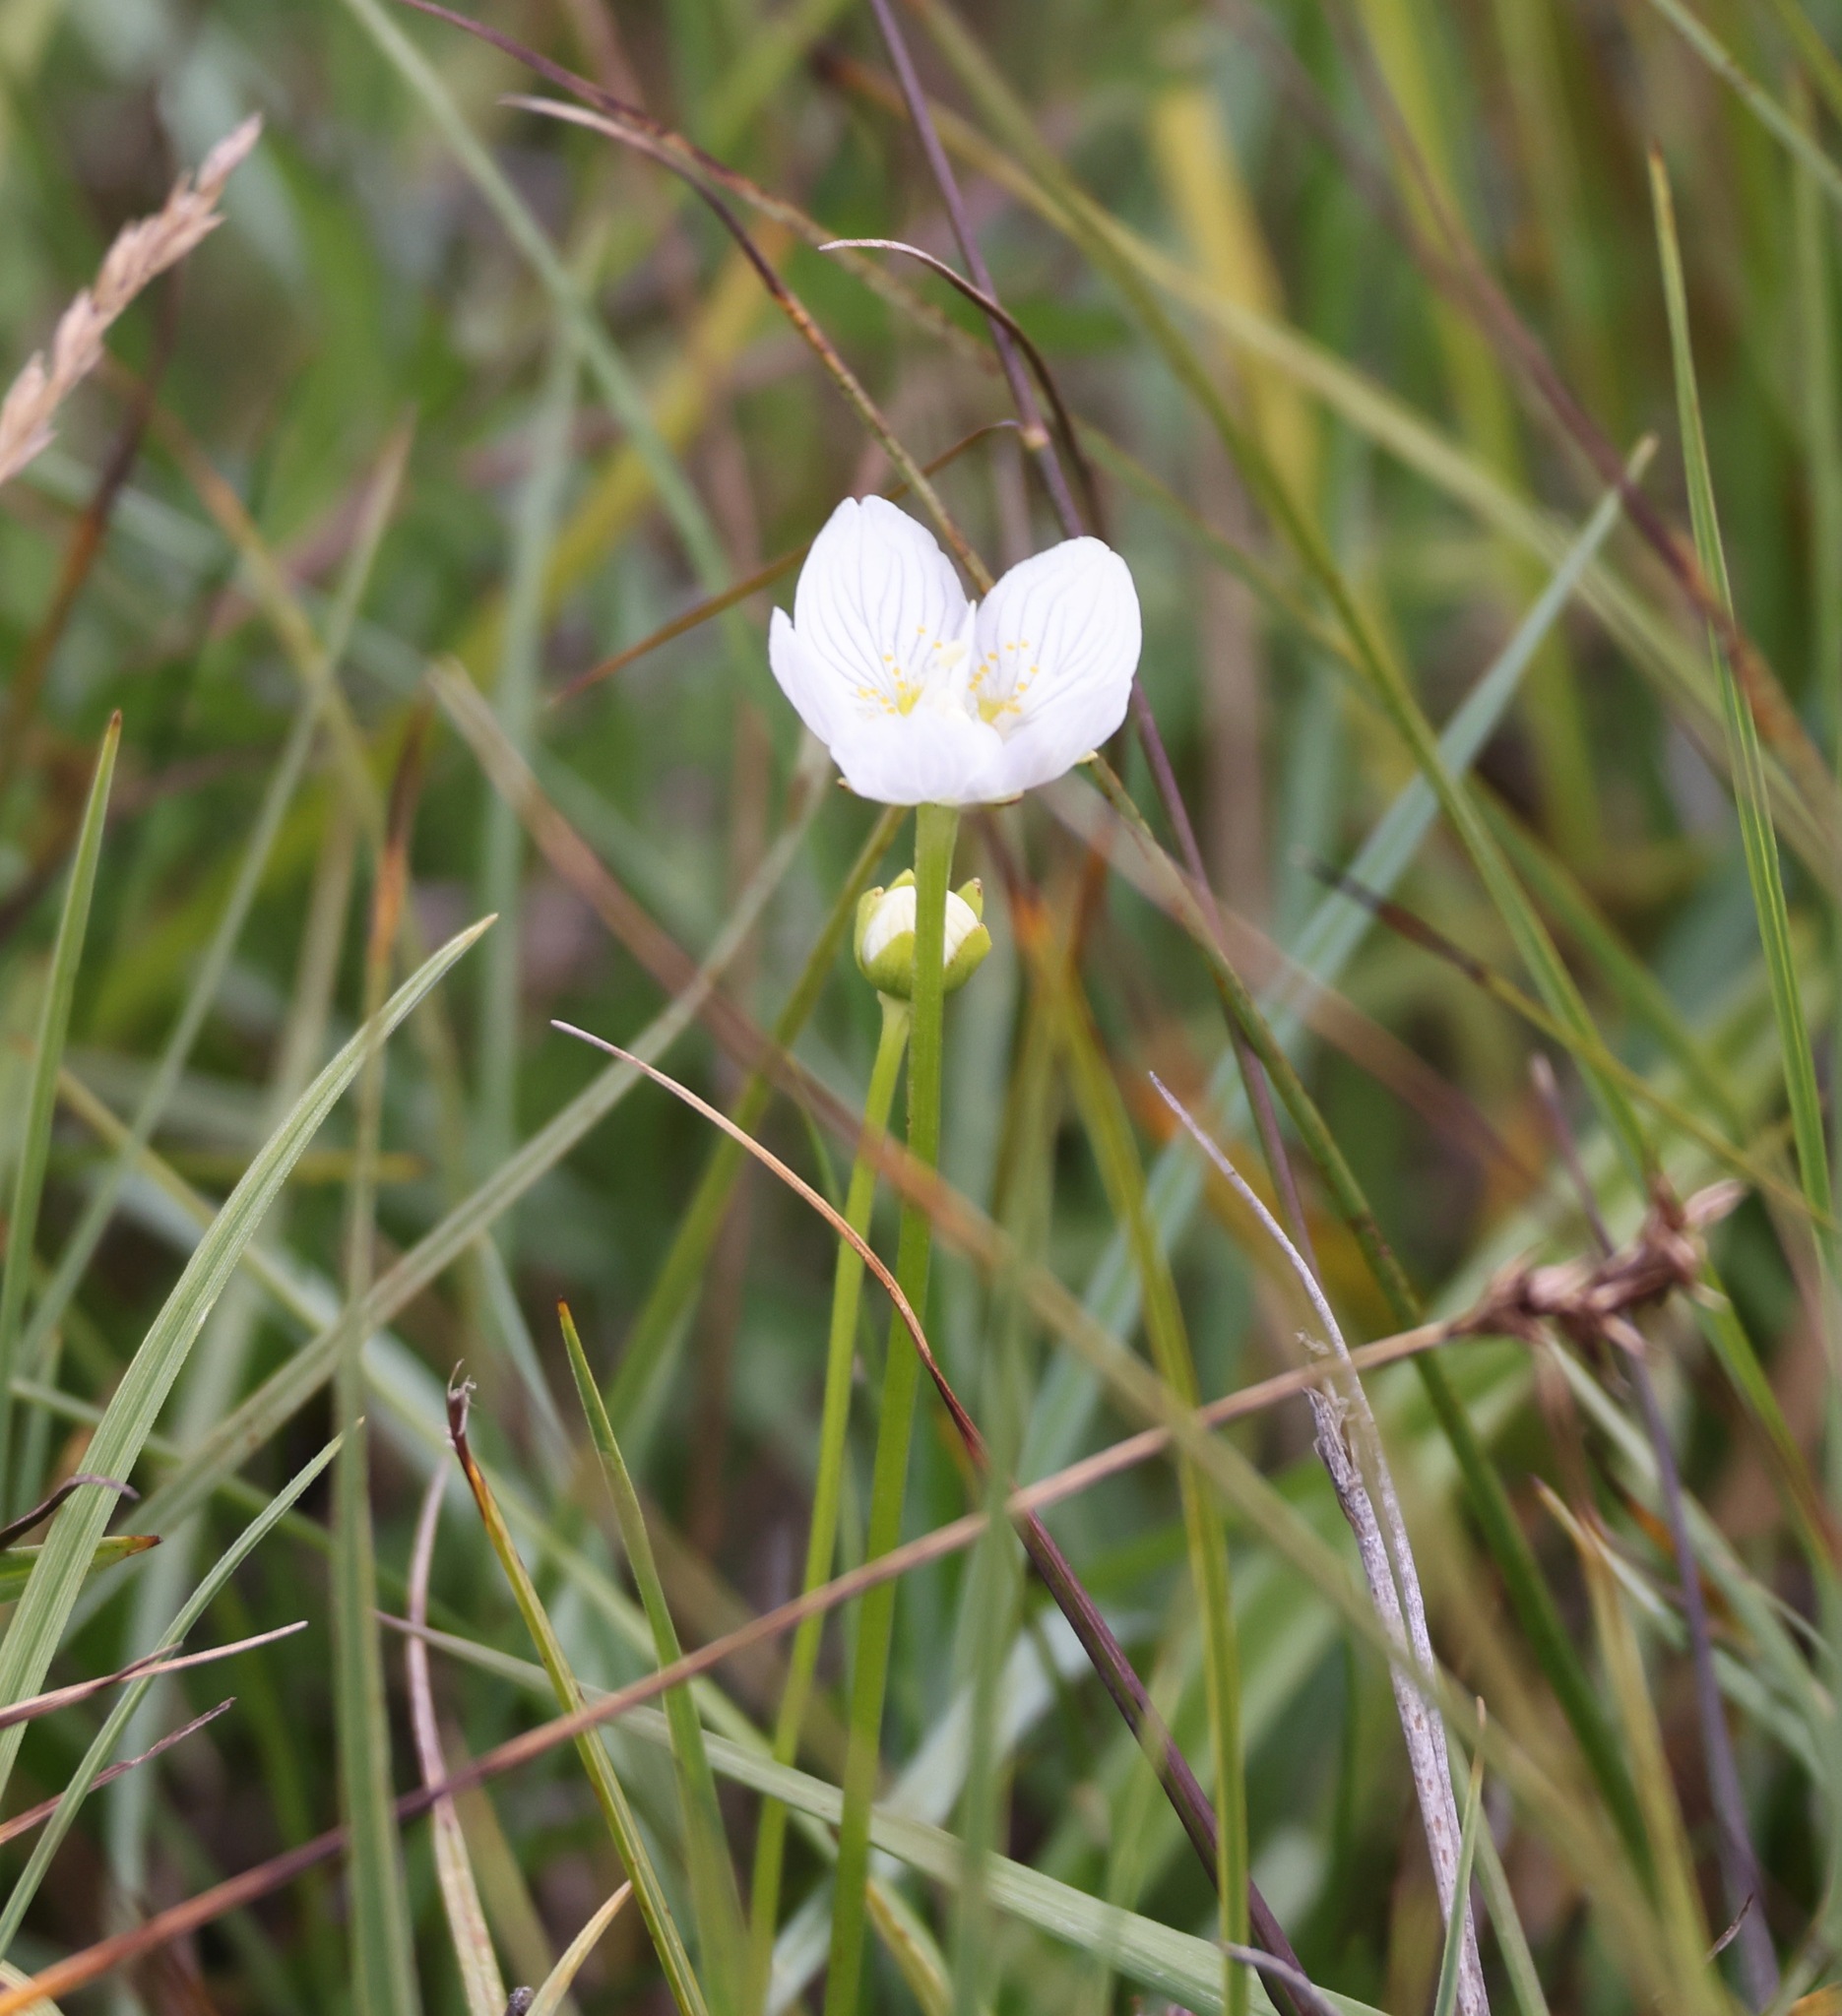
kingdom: Plantae
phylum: Tracheophyta
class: Magnoliopsida
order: Celastrales
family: Parnassiaceae
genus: Parnassia
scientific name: Parnassia palustris
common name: Grass-of-parnassus
